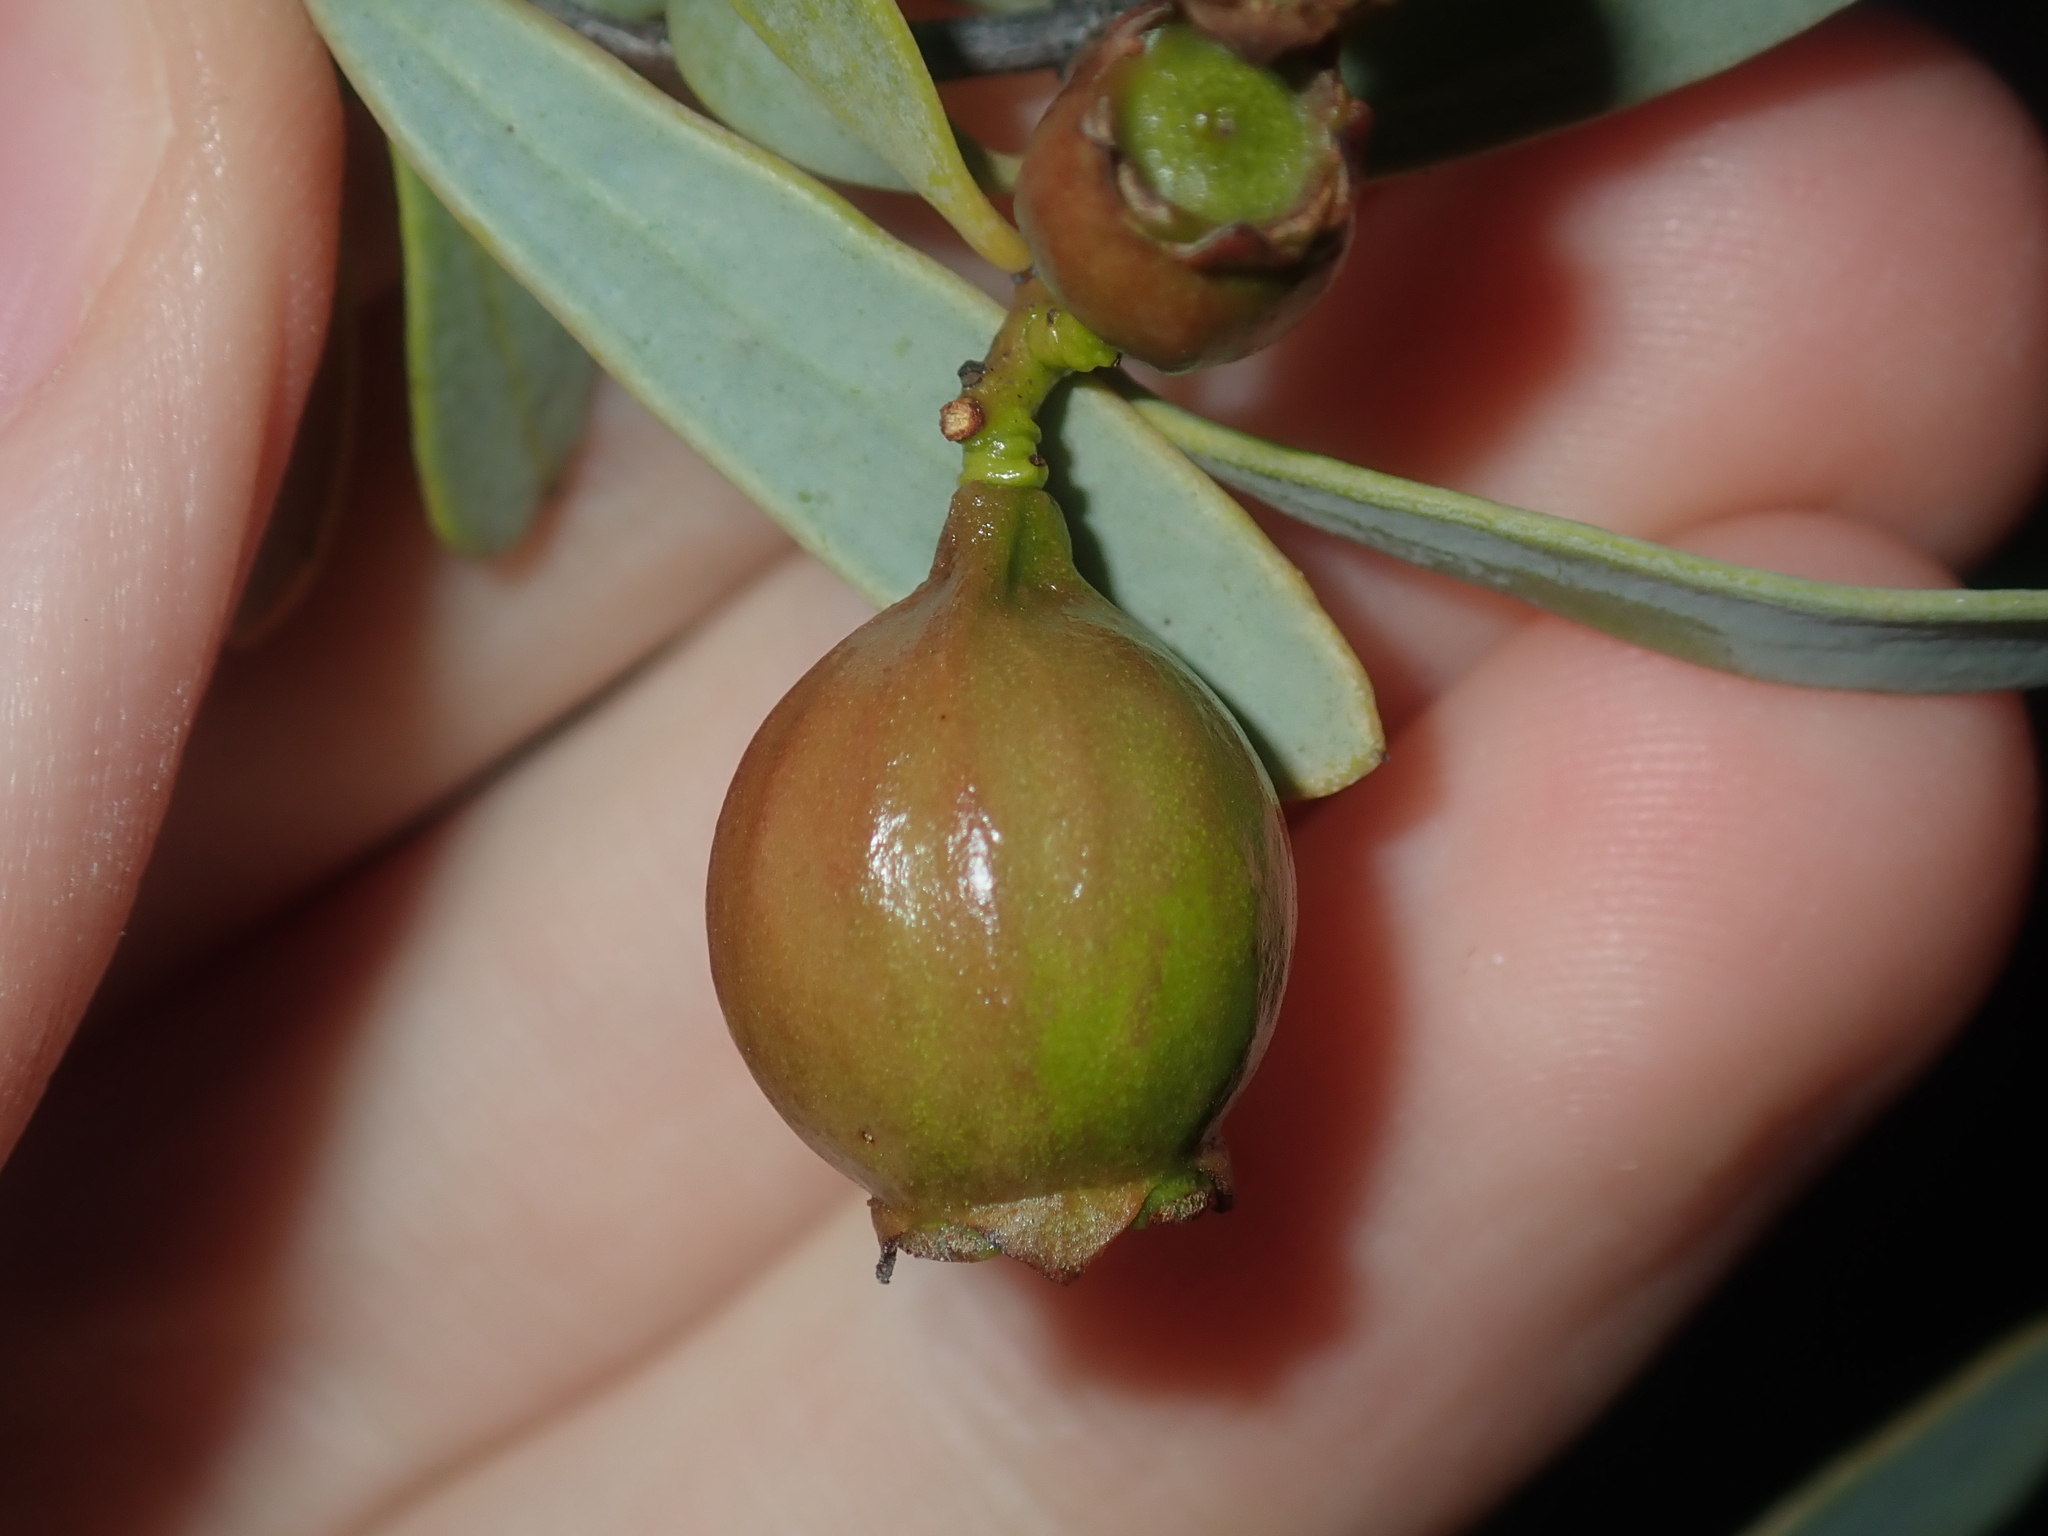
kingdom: Plantae
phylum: Tracheophyta
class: Magnoliopsida
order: Santalales
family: Santalaceae
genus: Santalum
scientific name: Santalum spicatum
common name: West australian sandalwood
